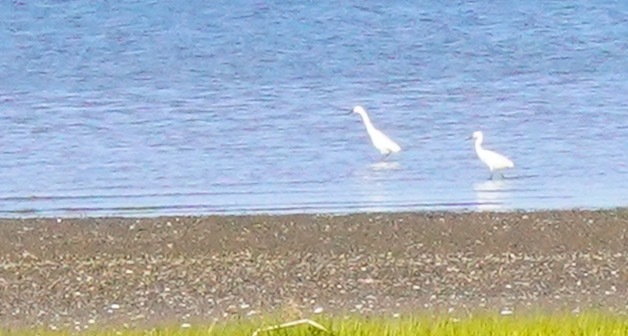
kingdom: Animalia
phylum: Chordata
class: Aves
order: Pelecaniformes
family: Ardeidae
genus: Egretta
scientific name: Egretta thula
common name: Snowy egret
